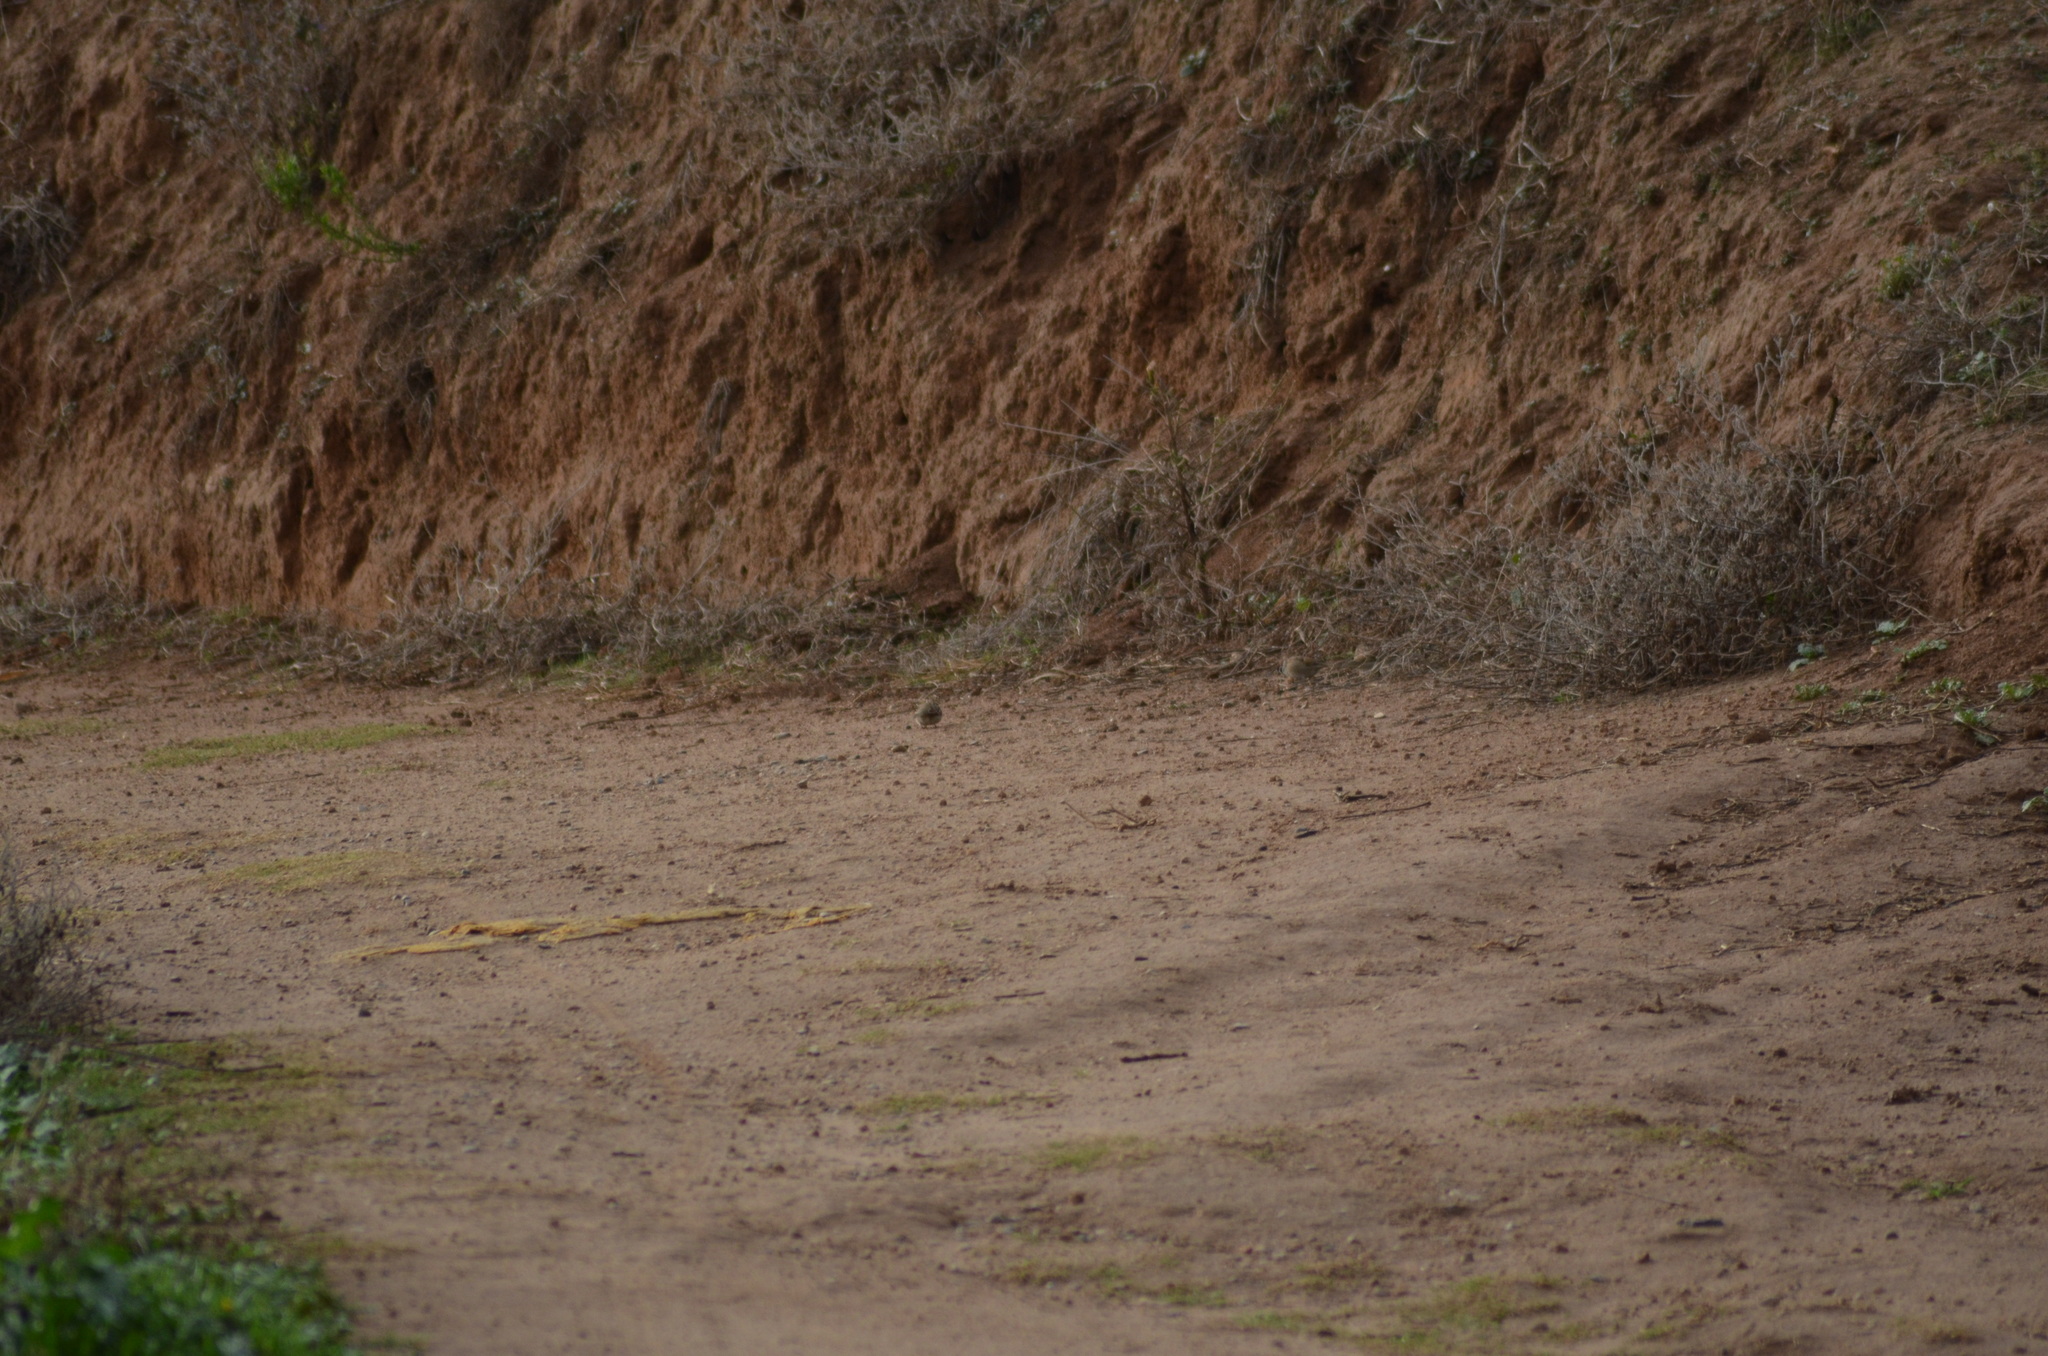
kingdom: Animalia
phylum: Chordata
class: Aves
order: Passeriformes
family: Passeridae
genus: Passer
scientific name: Passer montanus
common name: Eurasian tree sparrow
